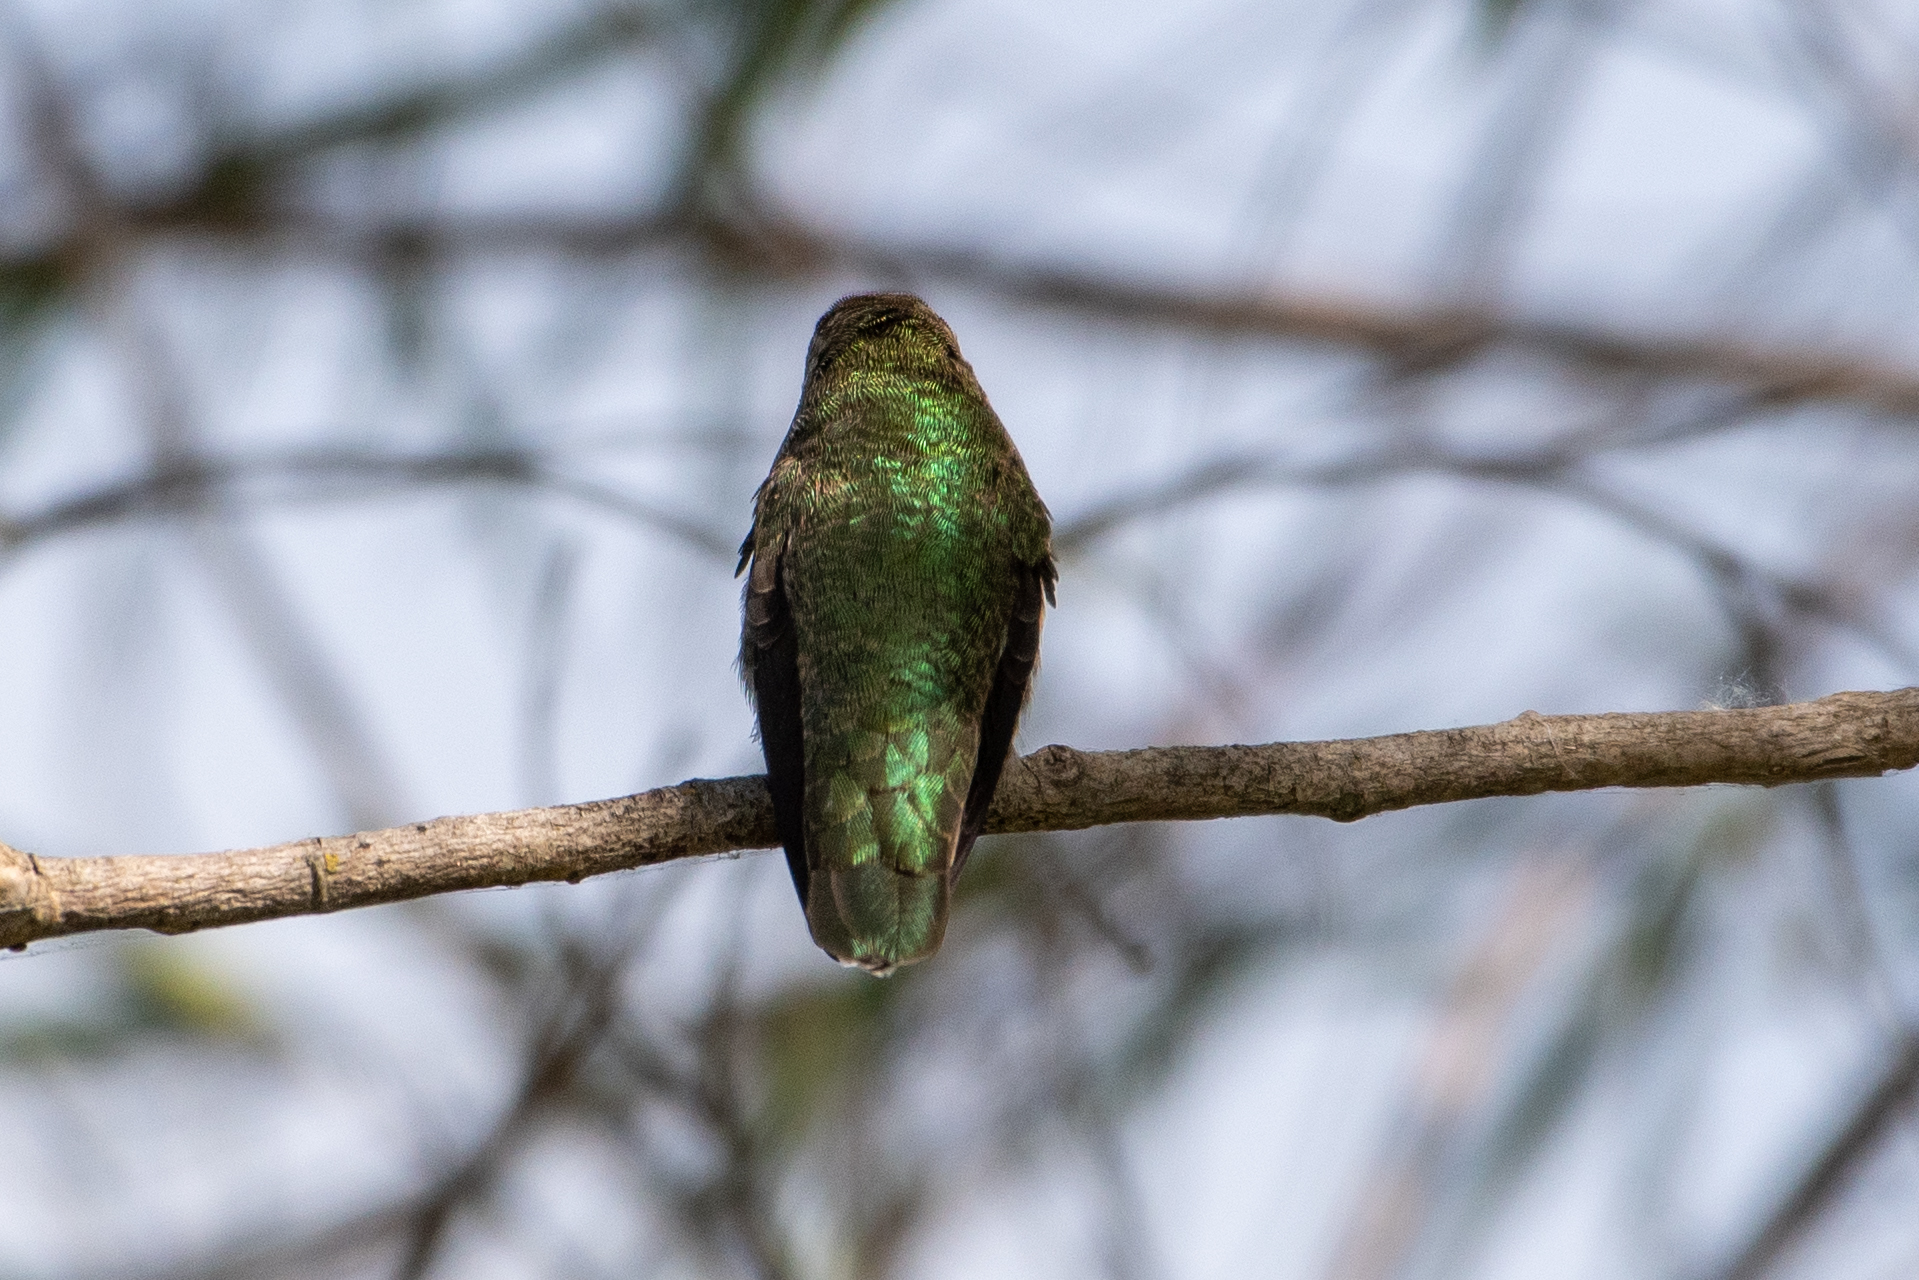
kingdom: Animalia
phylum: Chordata
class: Aves
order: Apodiformes
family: Trochilidae
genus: Calypte
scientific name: Calypte anna
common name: Anna's hummingbird
